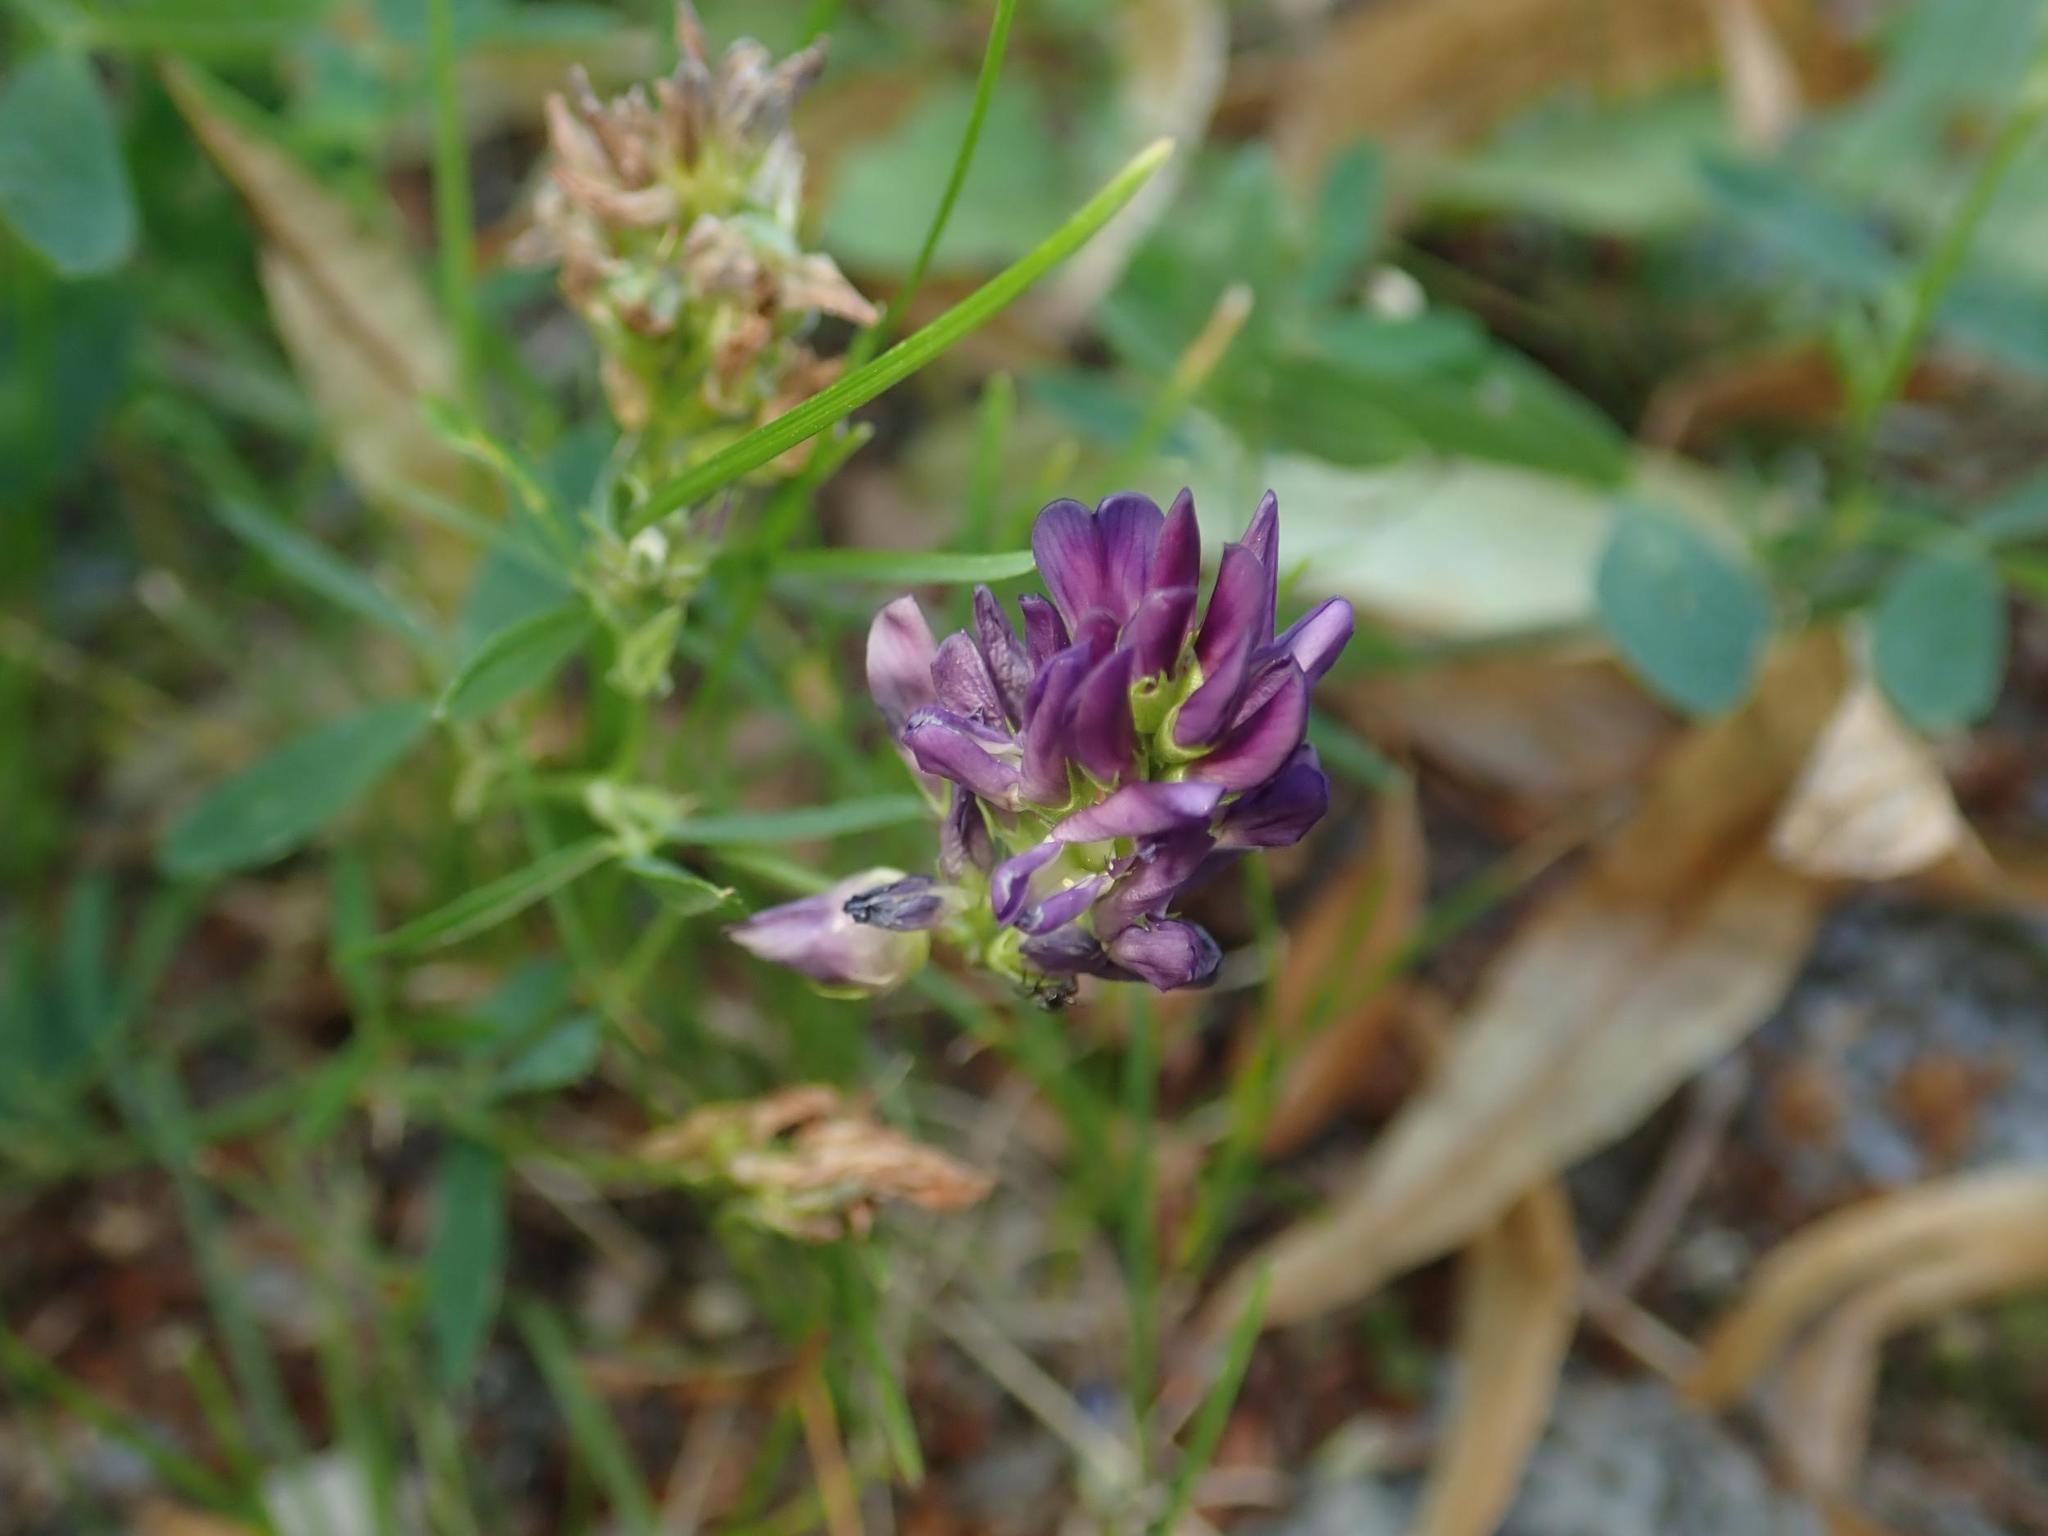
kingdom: Plantae
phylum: Tracheophyta
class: Magnoliopsida
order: Fabales
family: Fabaceae
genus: Medicago
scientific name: Medicago varia
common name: Sand lucerne
